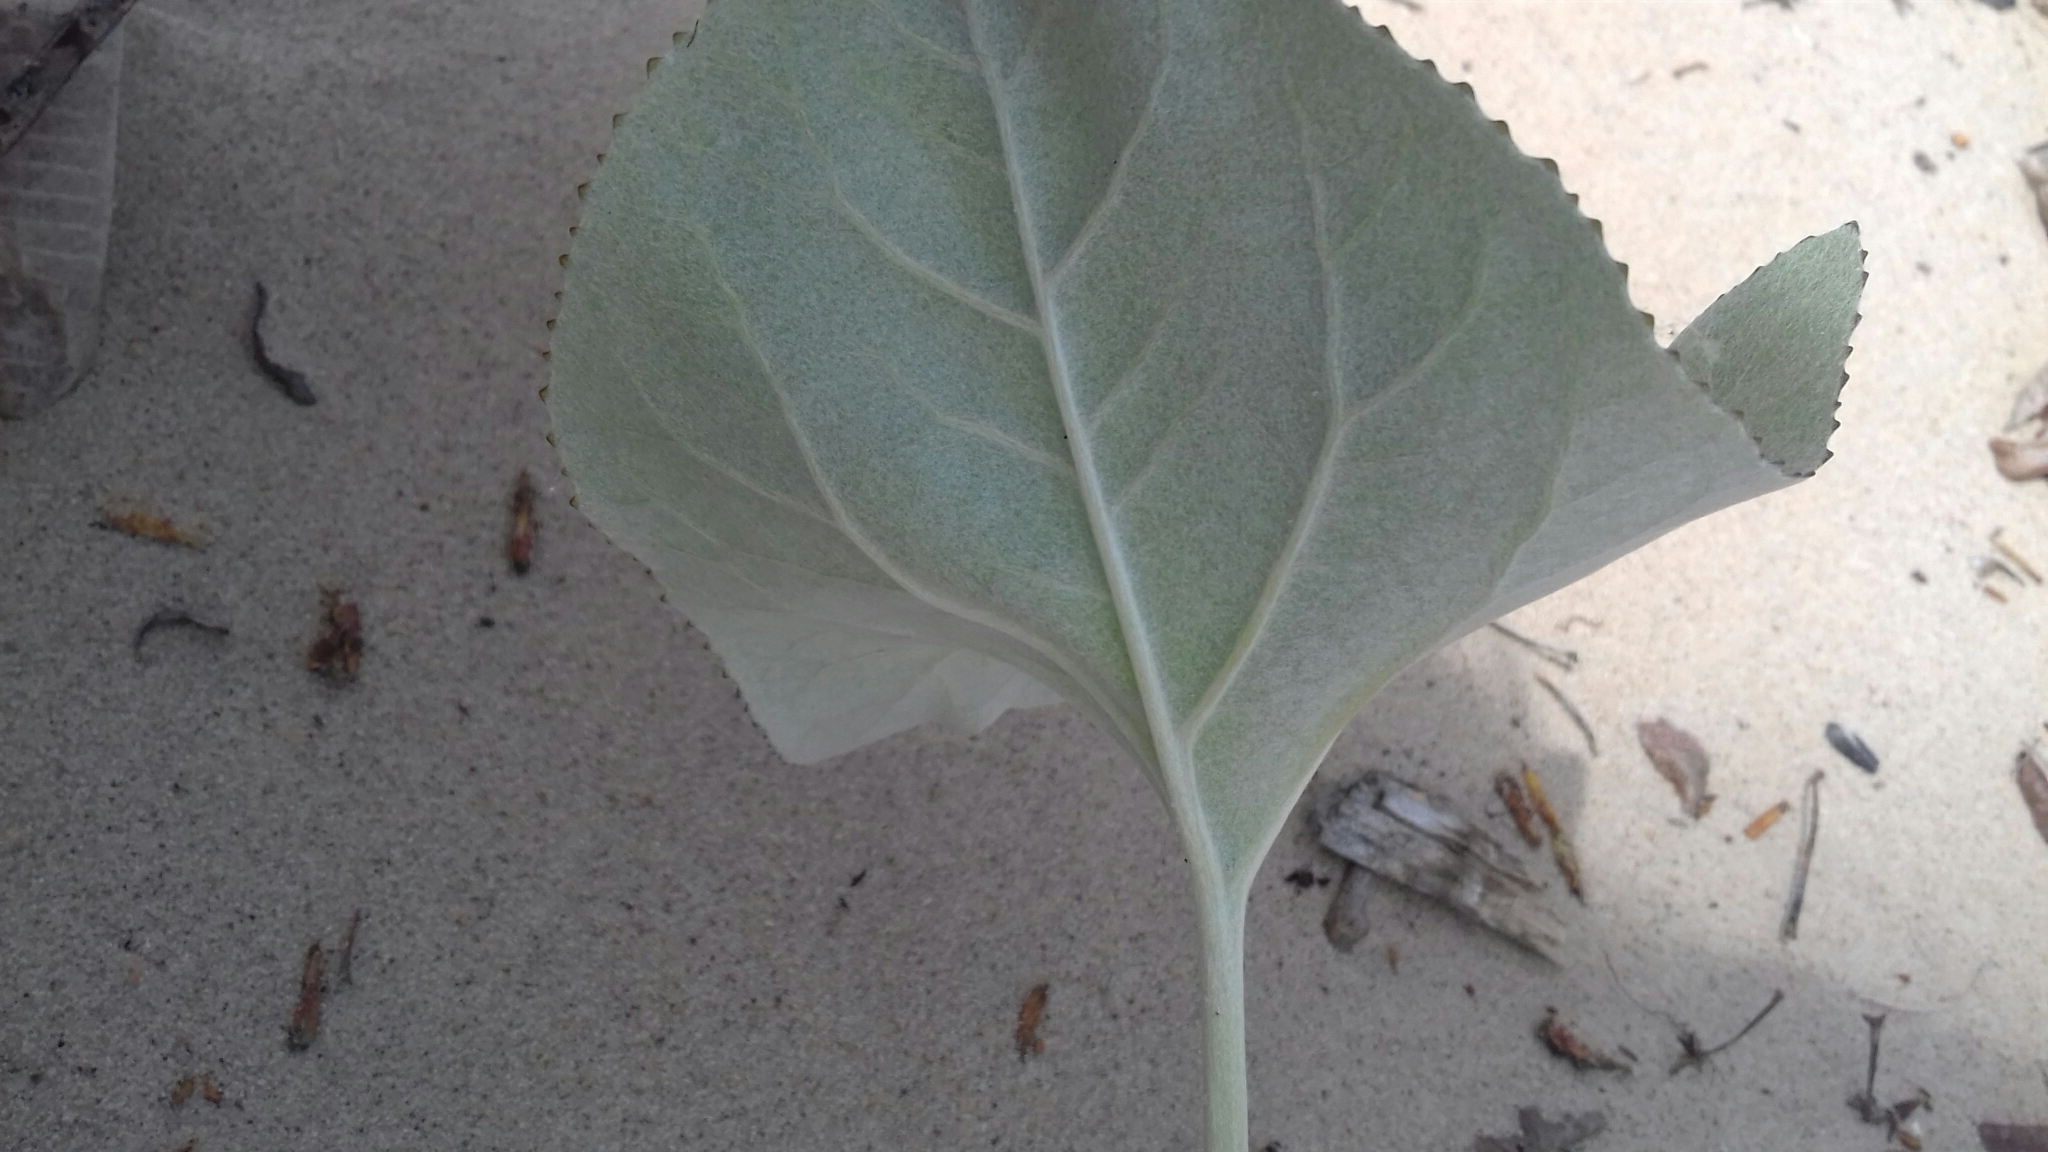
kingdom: Plantae
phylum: Tracheophyta
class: Magnoliopsida
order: Asterales
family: Asteraceae
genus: Petasites
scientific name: Petasites spurius
